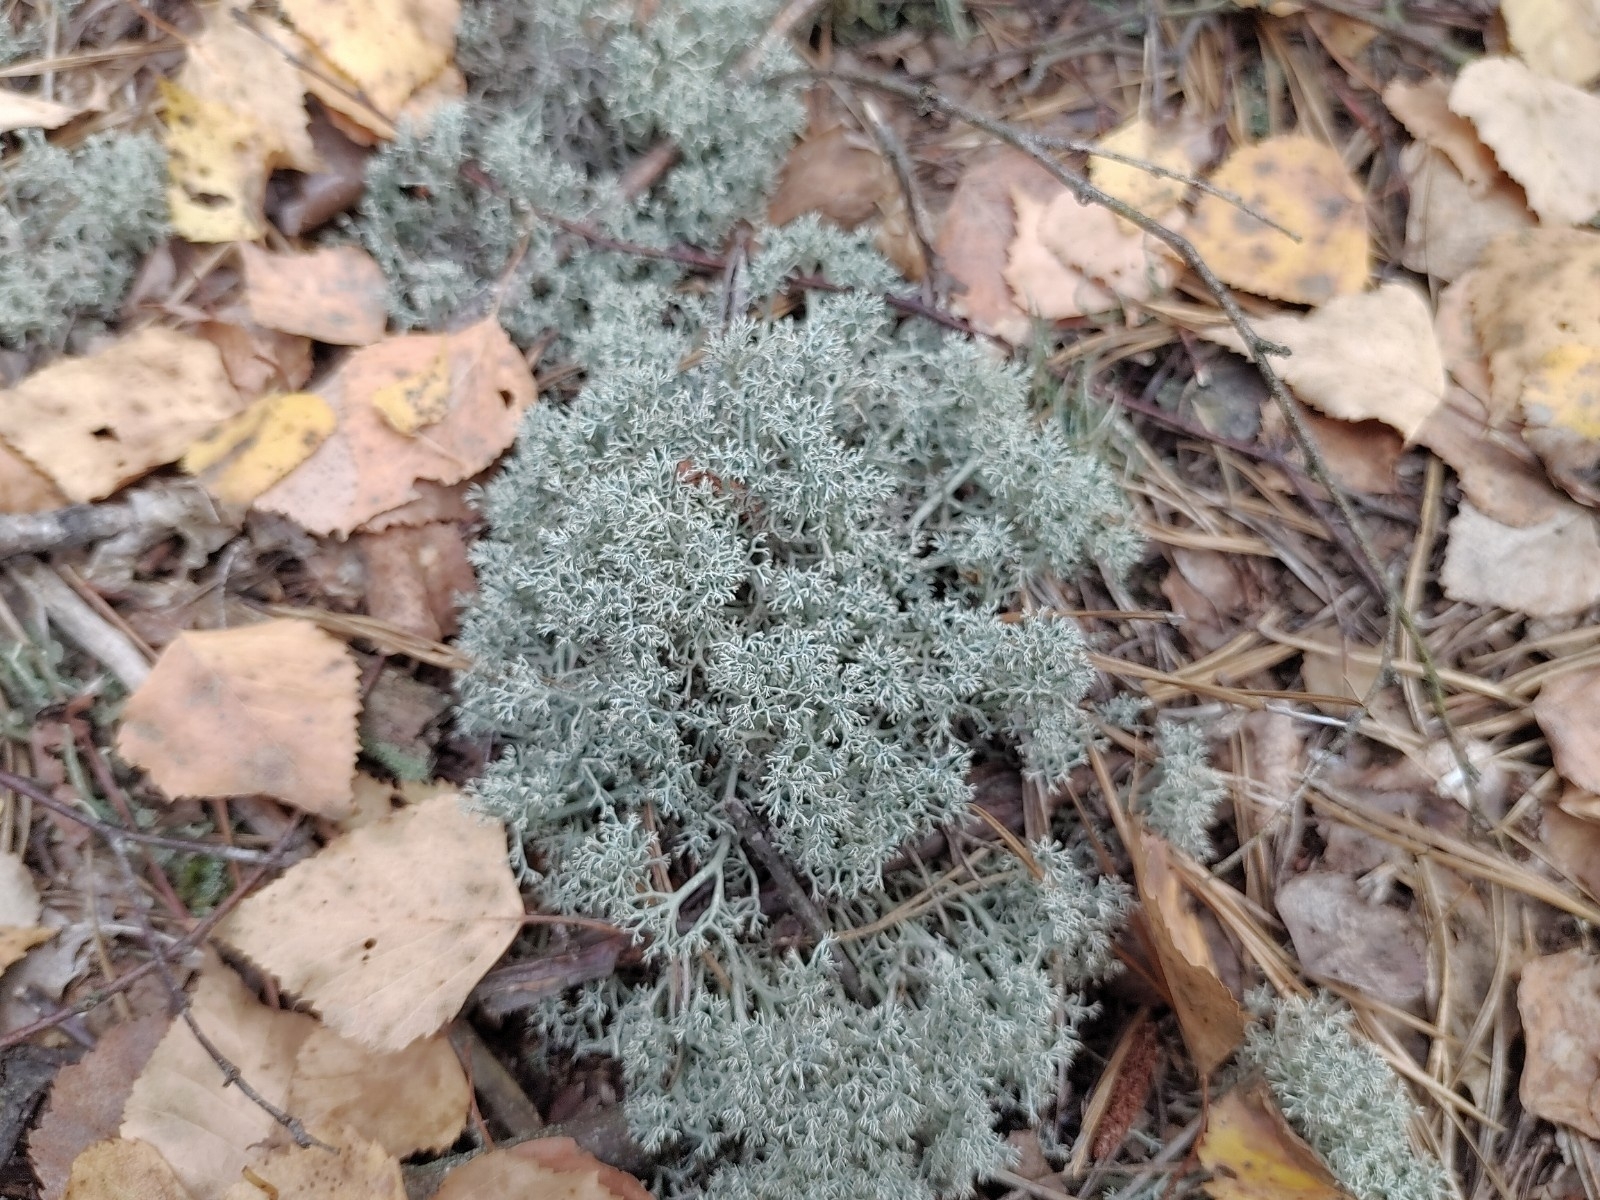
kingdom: Fungi
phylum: Ascomycota
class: Lecanoromycetes
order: Lecanorales
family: Cladoniaceae
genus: Cladonia
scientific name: Cladonia arbuscula
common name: Reindeer lichen
